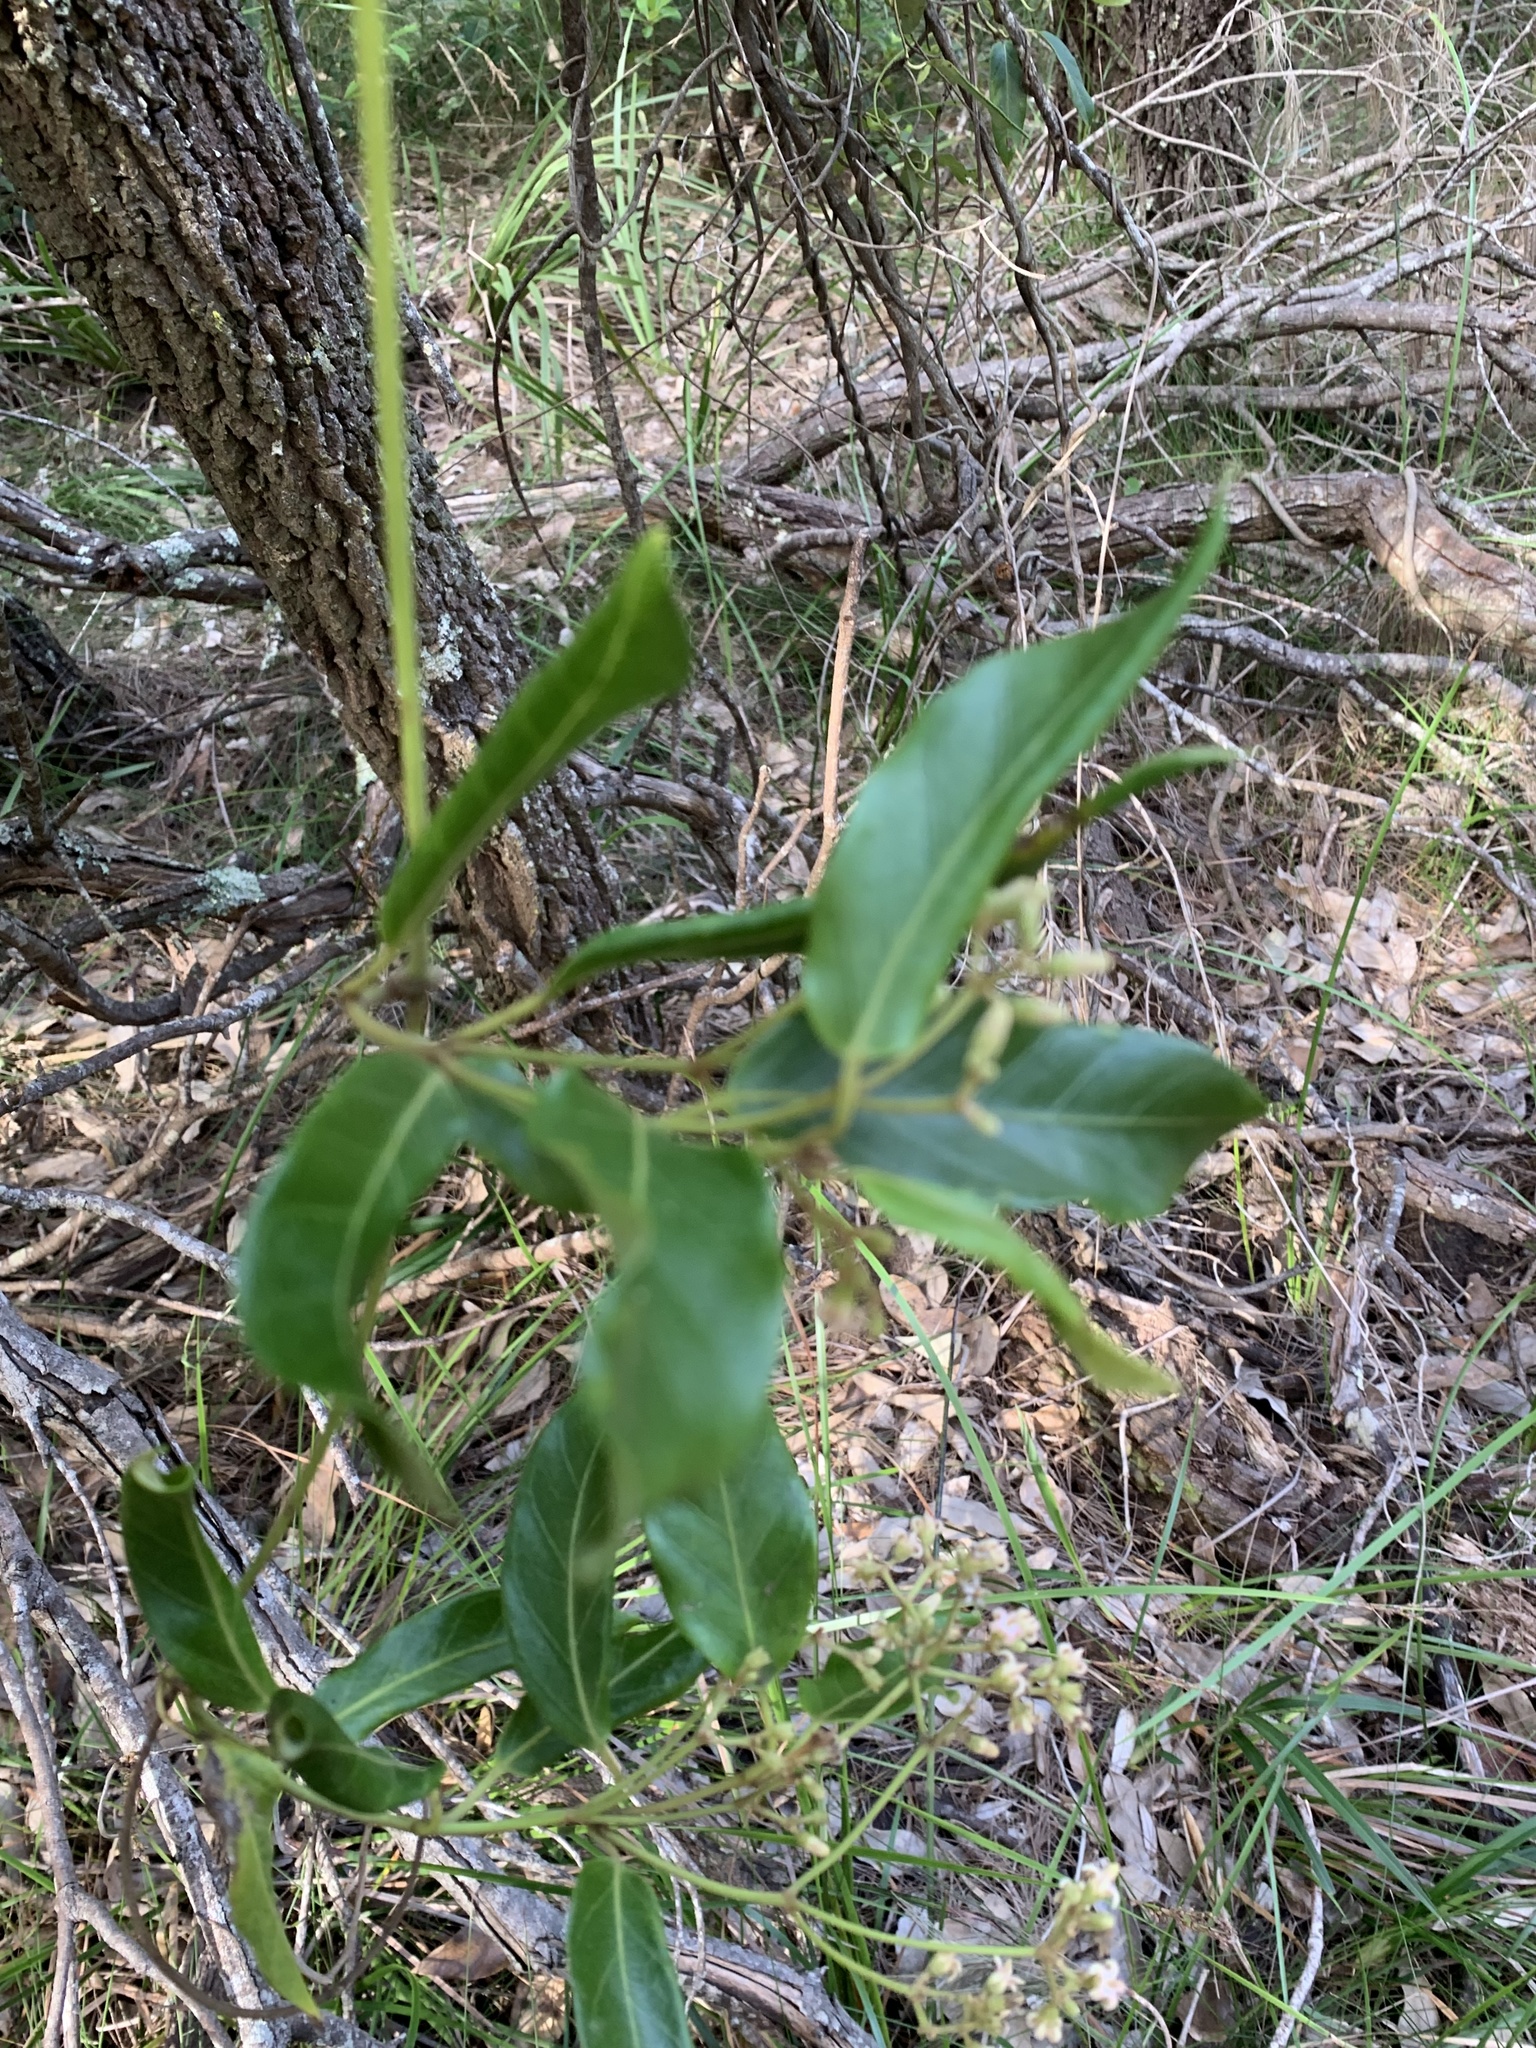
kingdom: Plantae
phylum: Tracheophyta
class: Magnoliopsida
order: Gentianales
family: Apocynaceae
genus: Parsonsia
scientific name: Parsonsia straminea
